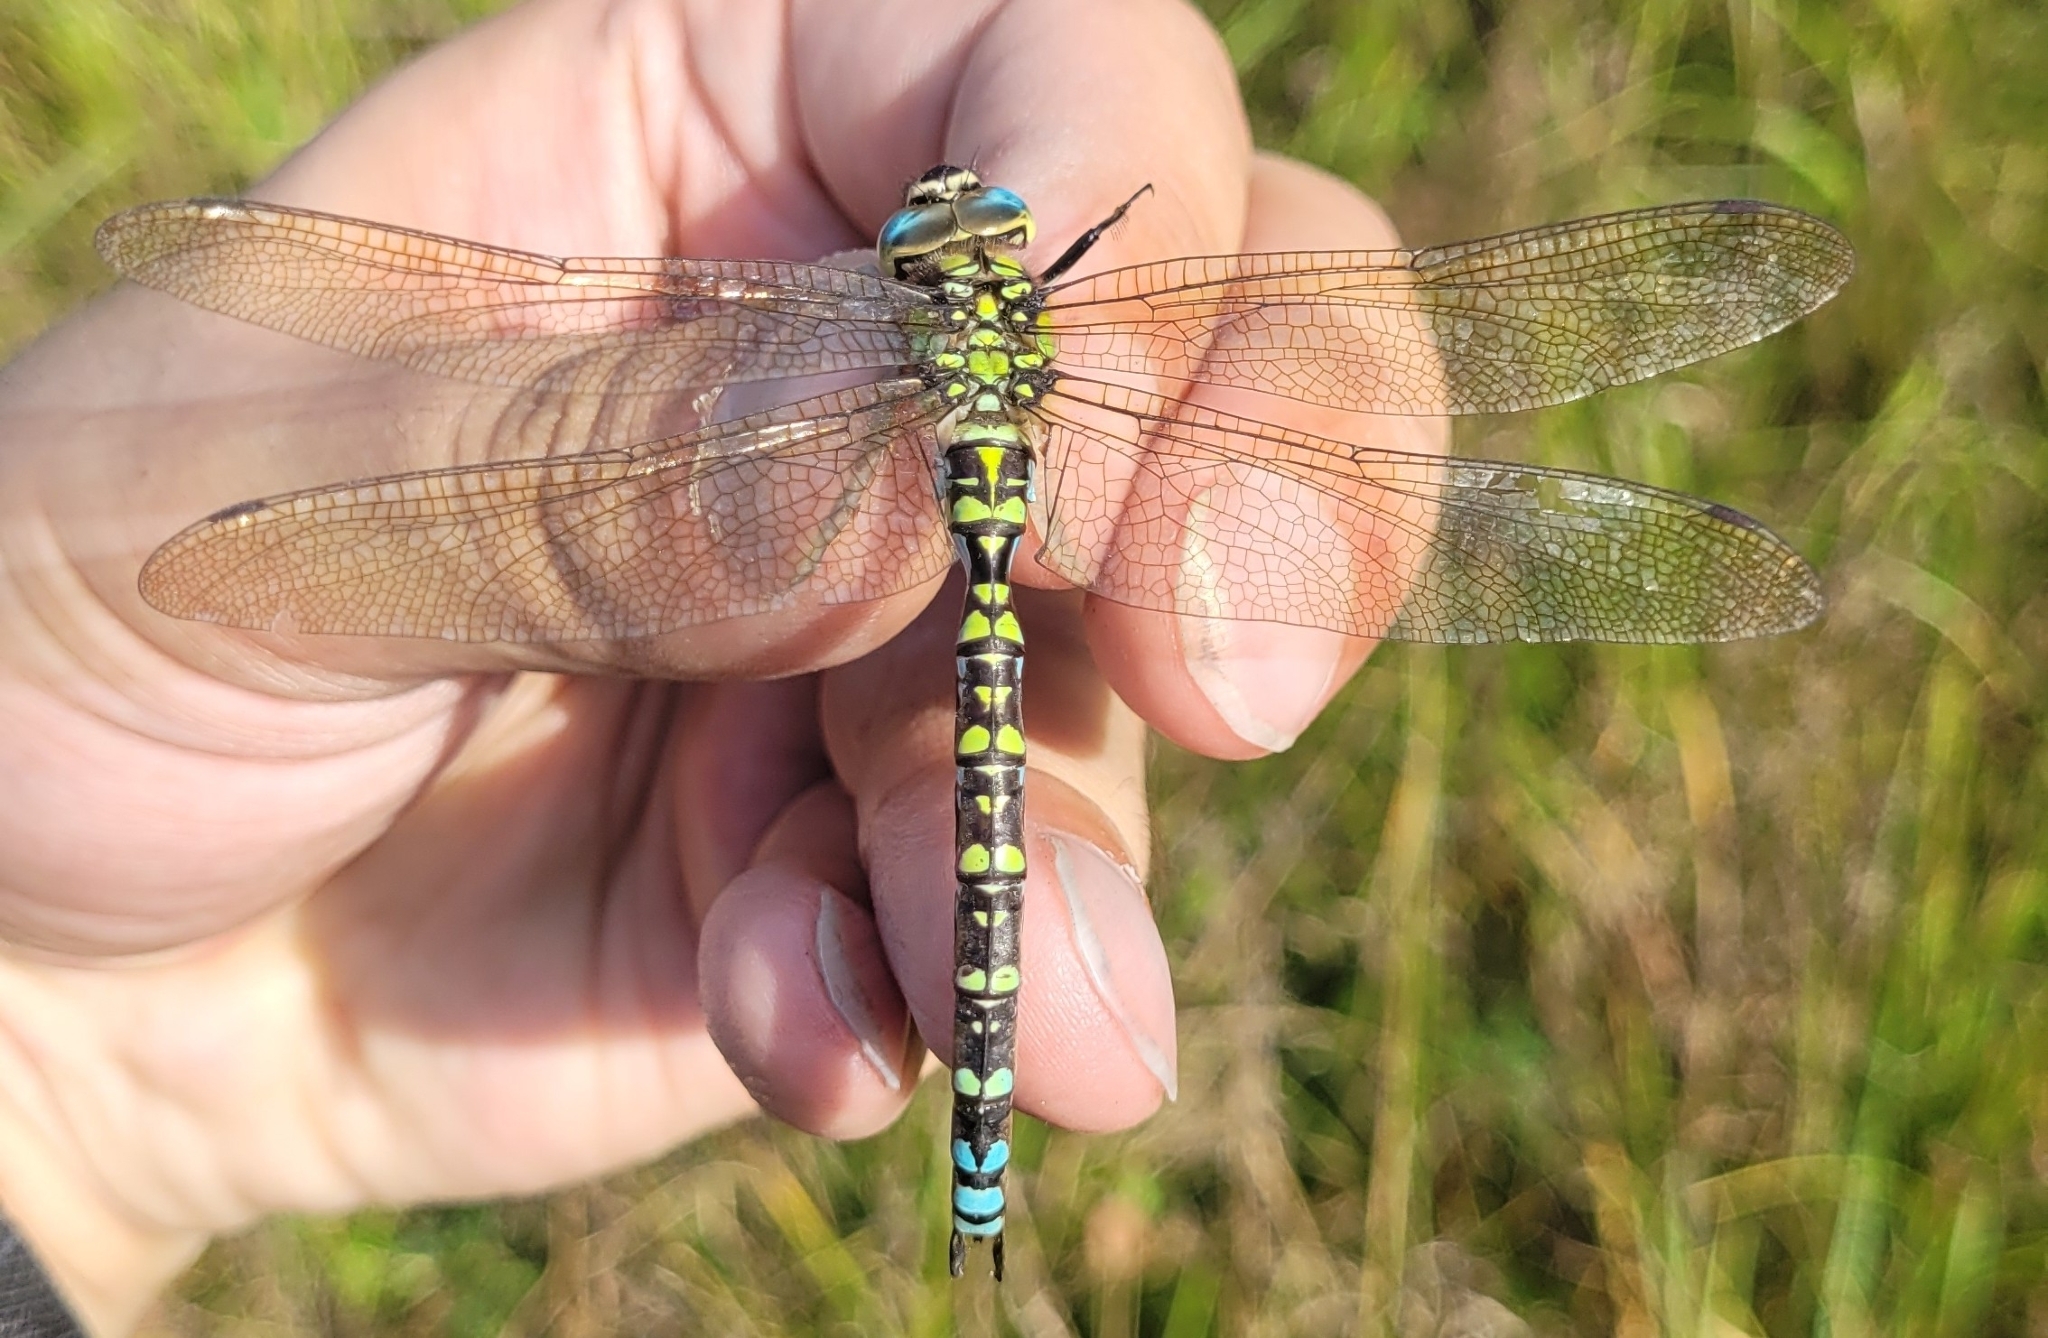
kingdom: Animalia
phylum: Arthropoda
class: Insecta
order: Odonata
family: Aeshnidae
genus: Aeshna
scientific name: Aeshna cyanea
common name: Southern hawker
